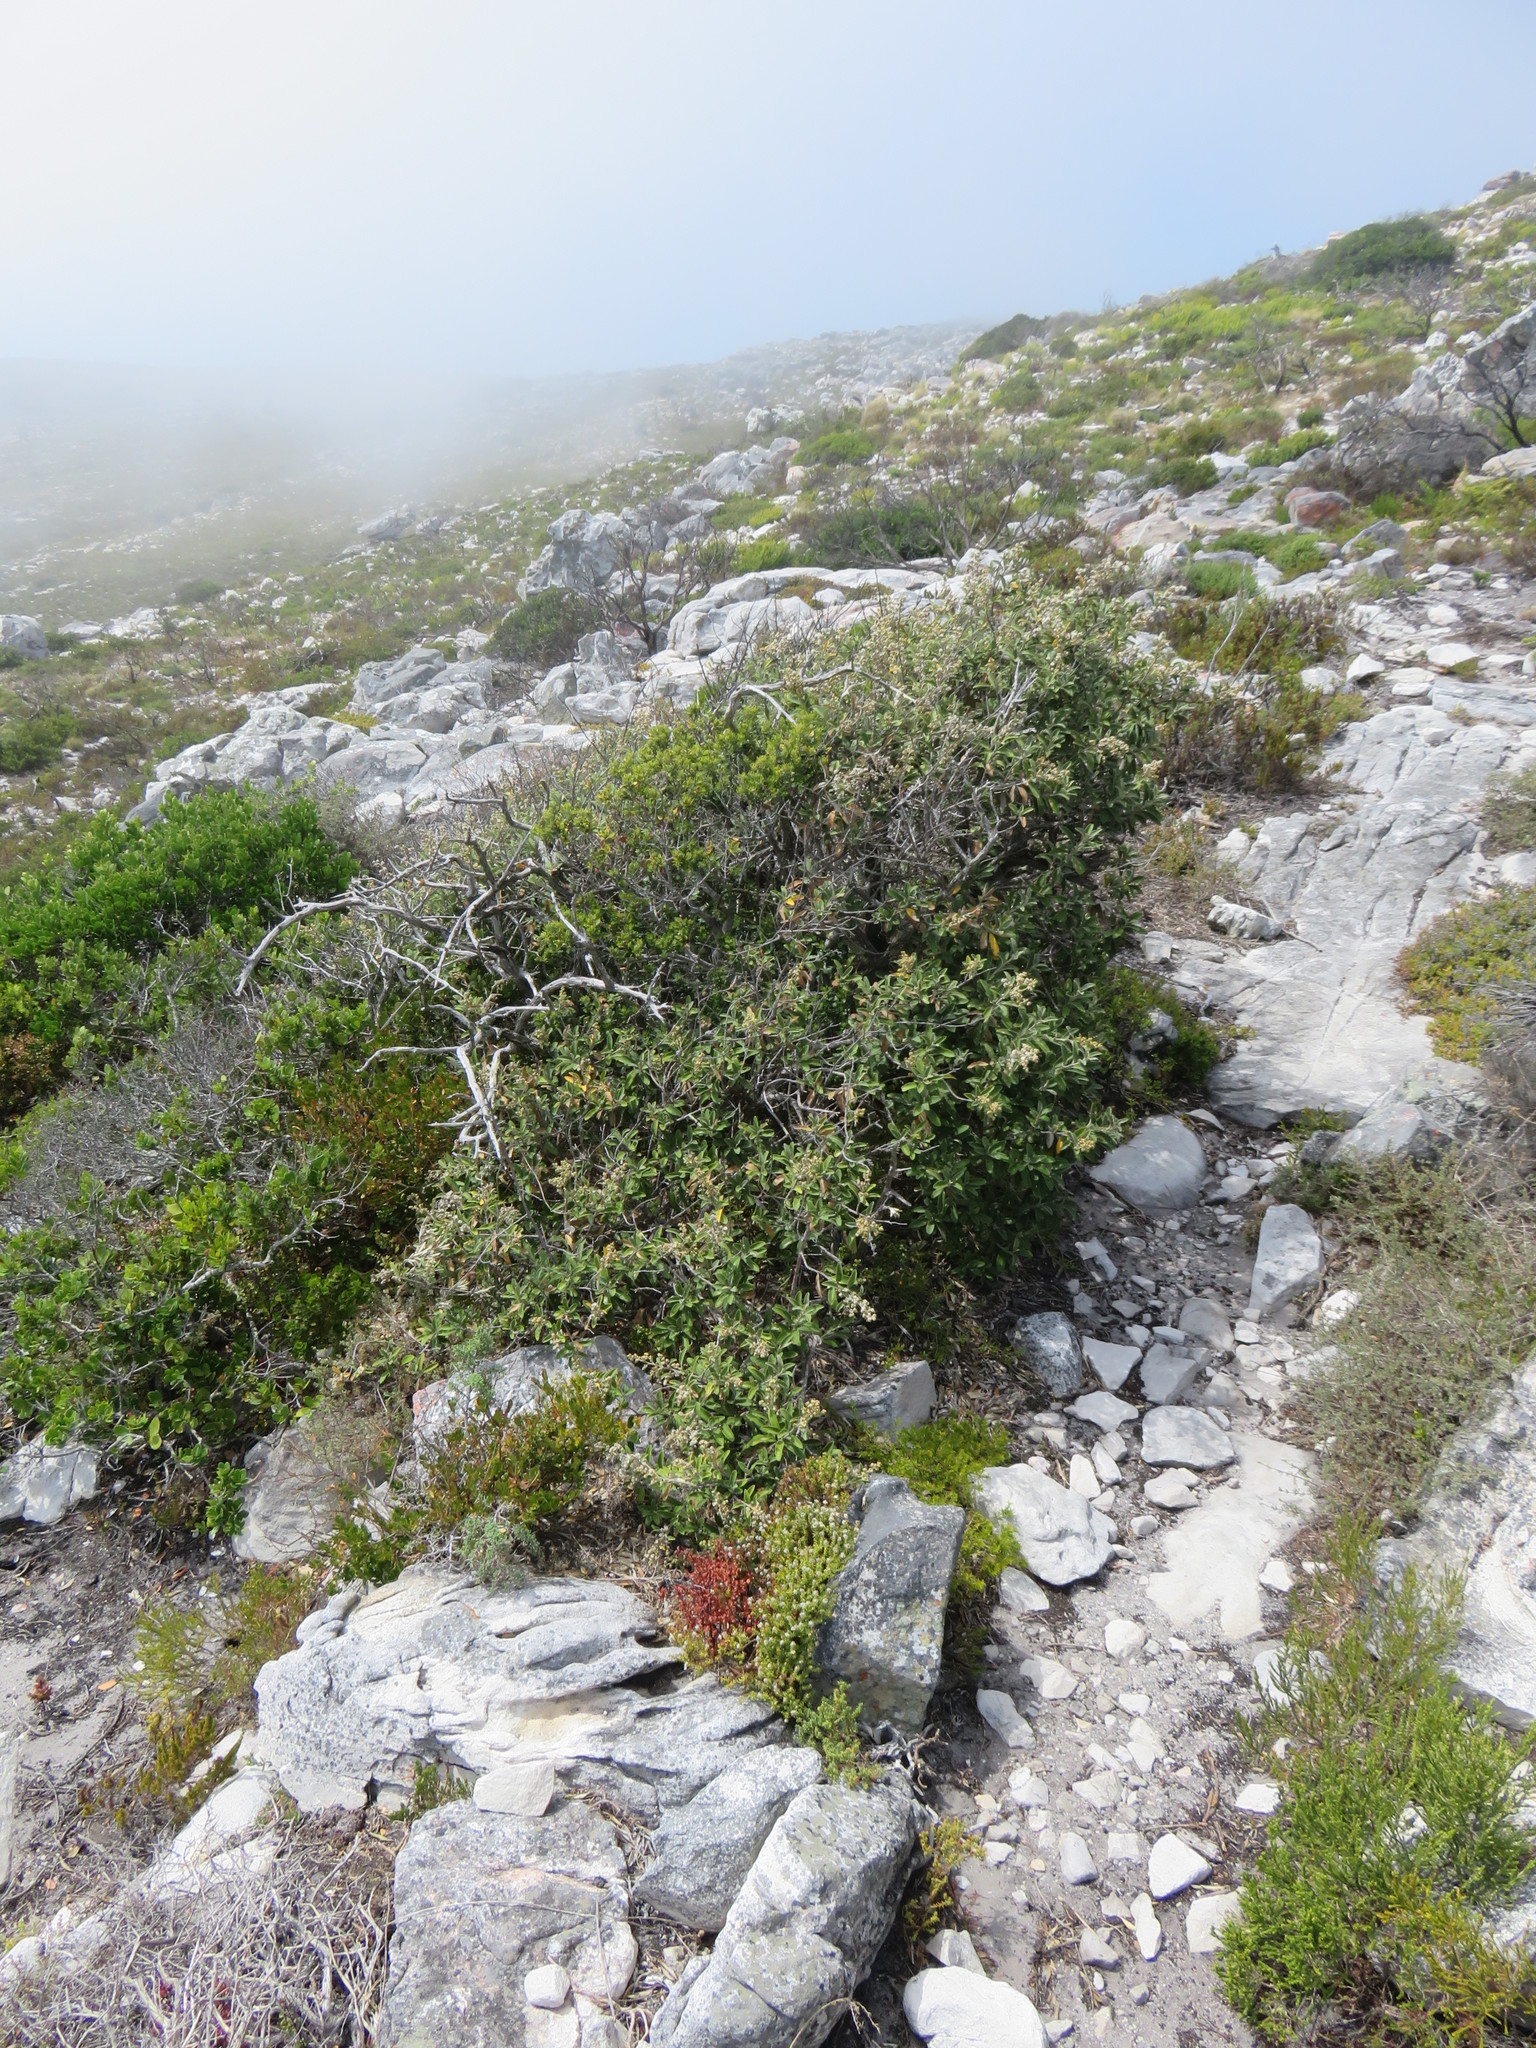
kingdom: Plantae
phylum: Tracheophyta
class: Magnoliopsida
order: Asterales
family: Asteraceae
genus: Tarchonanthus
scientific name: Tarchonanthus littoralis
